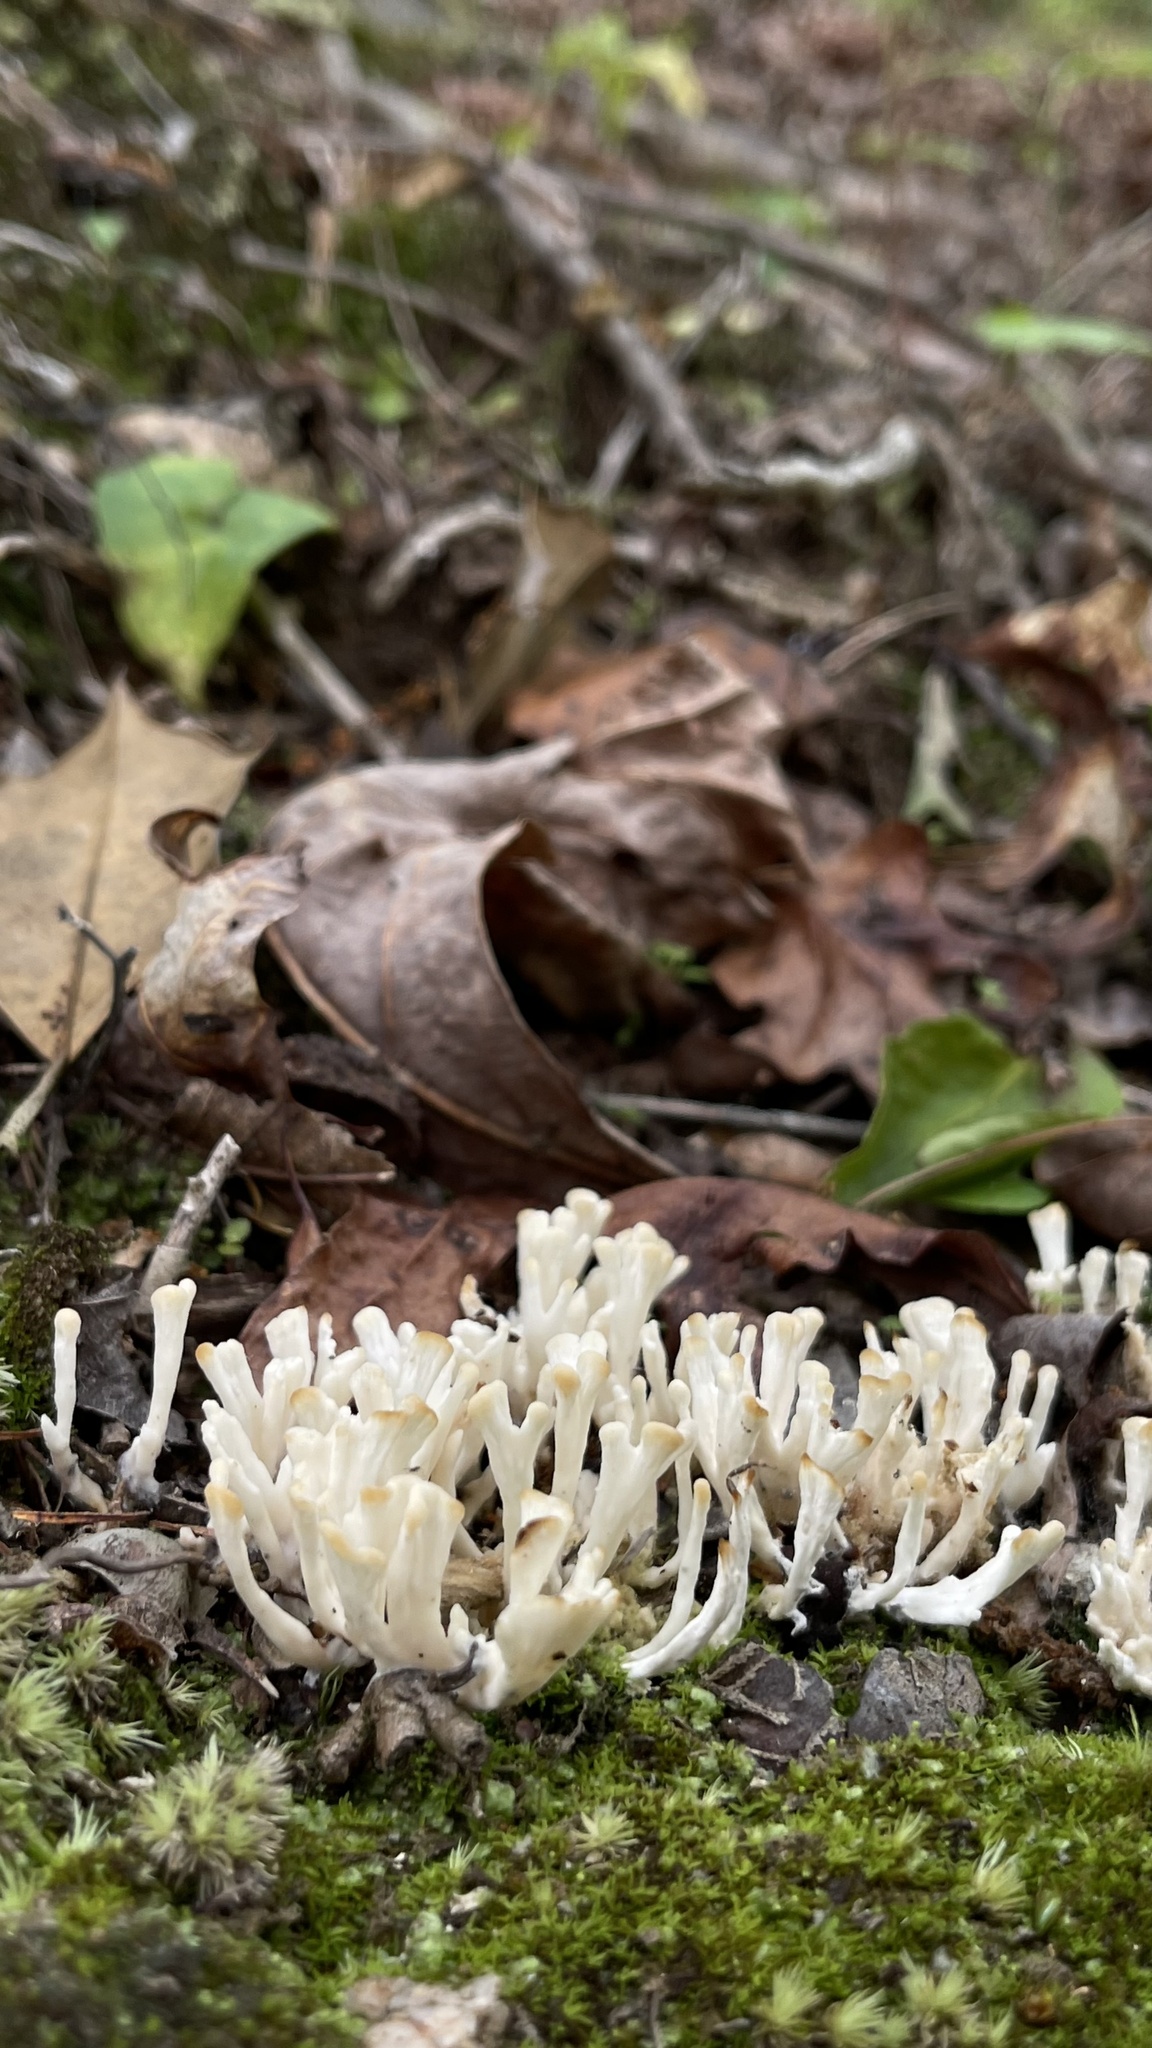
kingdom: Fungi
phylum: Basidiomycota
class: Agaricomycetes
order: Sebacinales
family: Sebacinaceae
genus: Sebacina
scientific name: Sebacina schweinitzii
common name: Jellied false coral fungus
